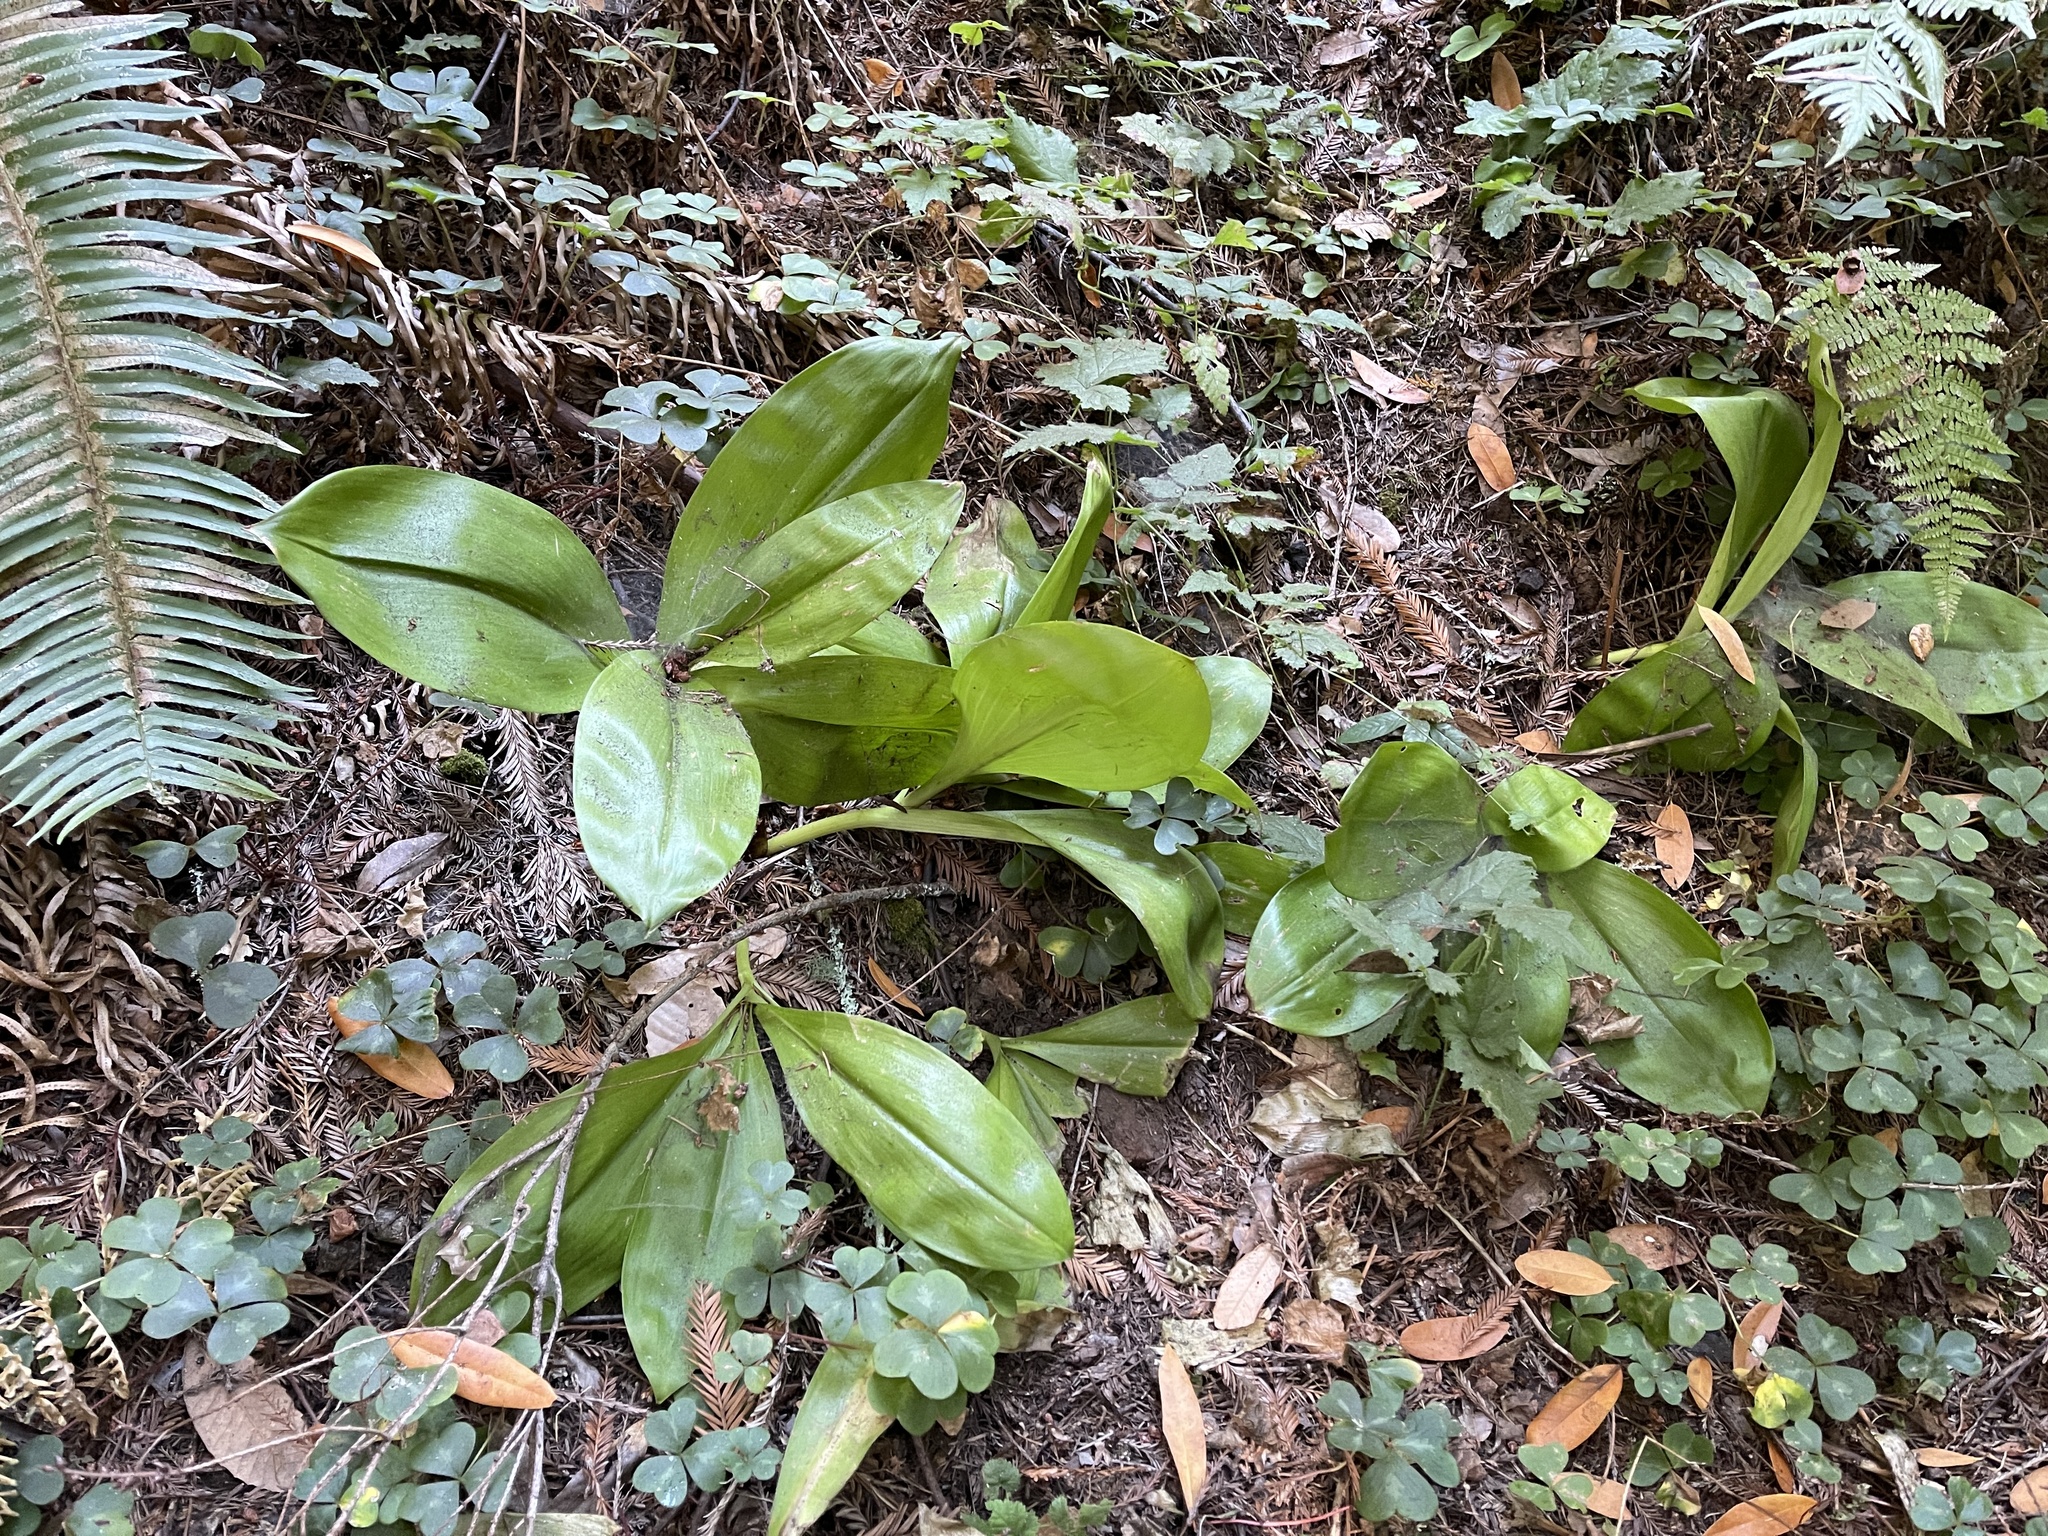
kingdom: Plantae
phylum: Tracheophyta
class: Liliopsida
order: Liliales
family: Liliaceae
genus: Clintonia
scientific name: Clintonia andrewsiana
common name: Red clintonia
